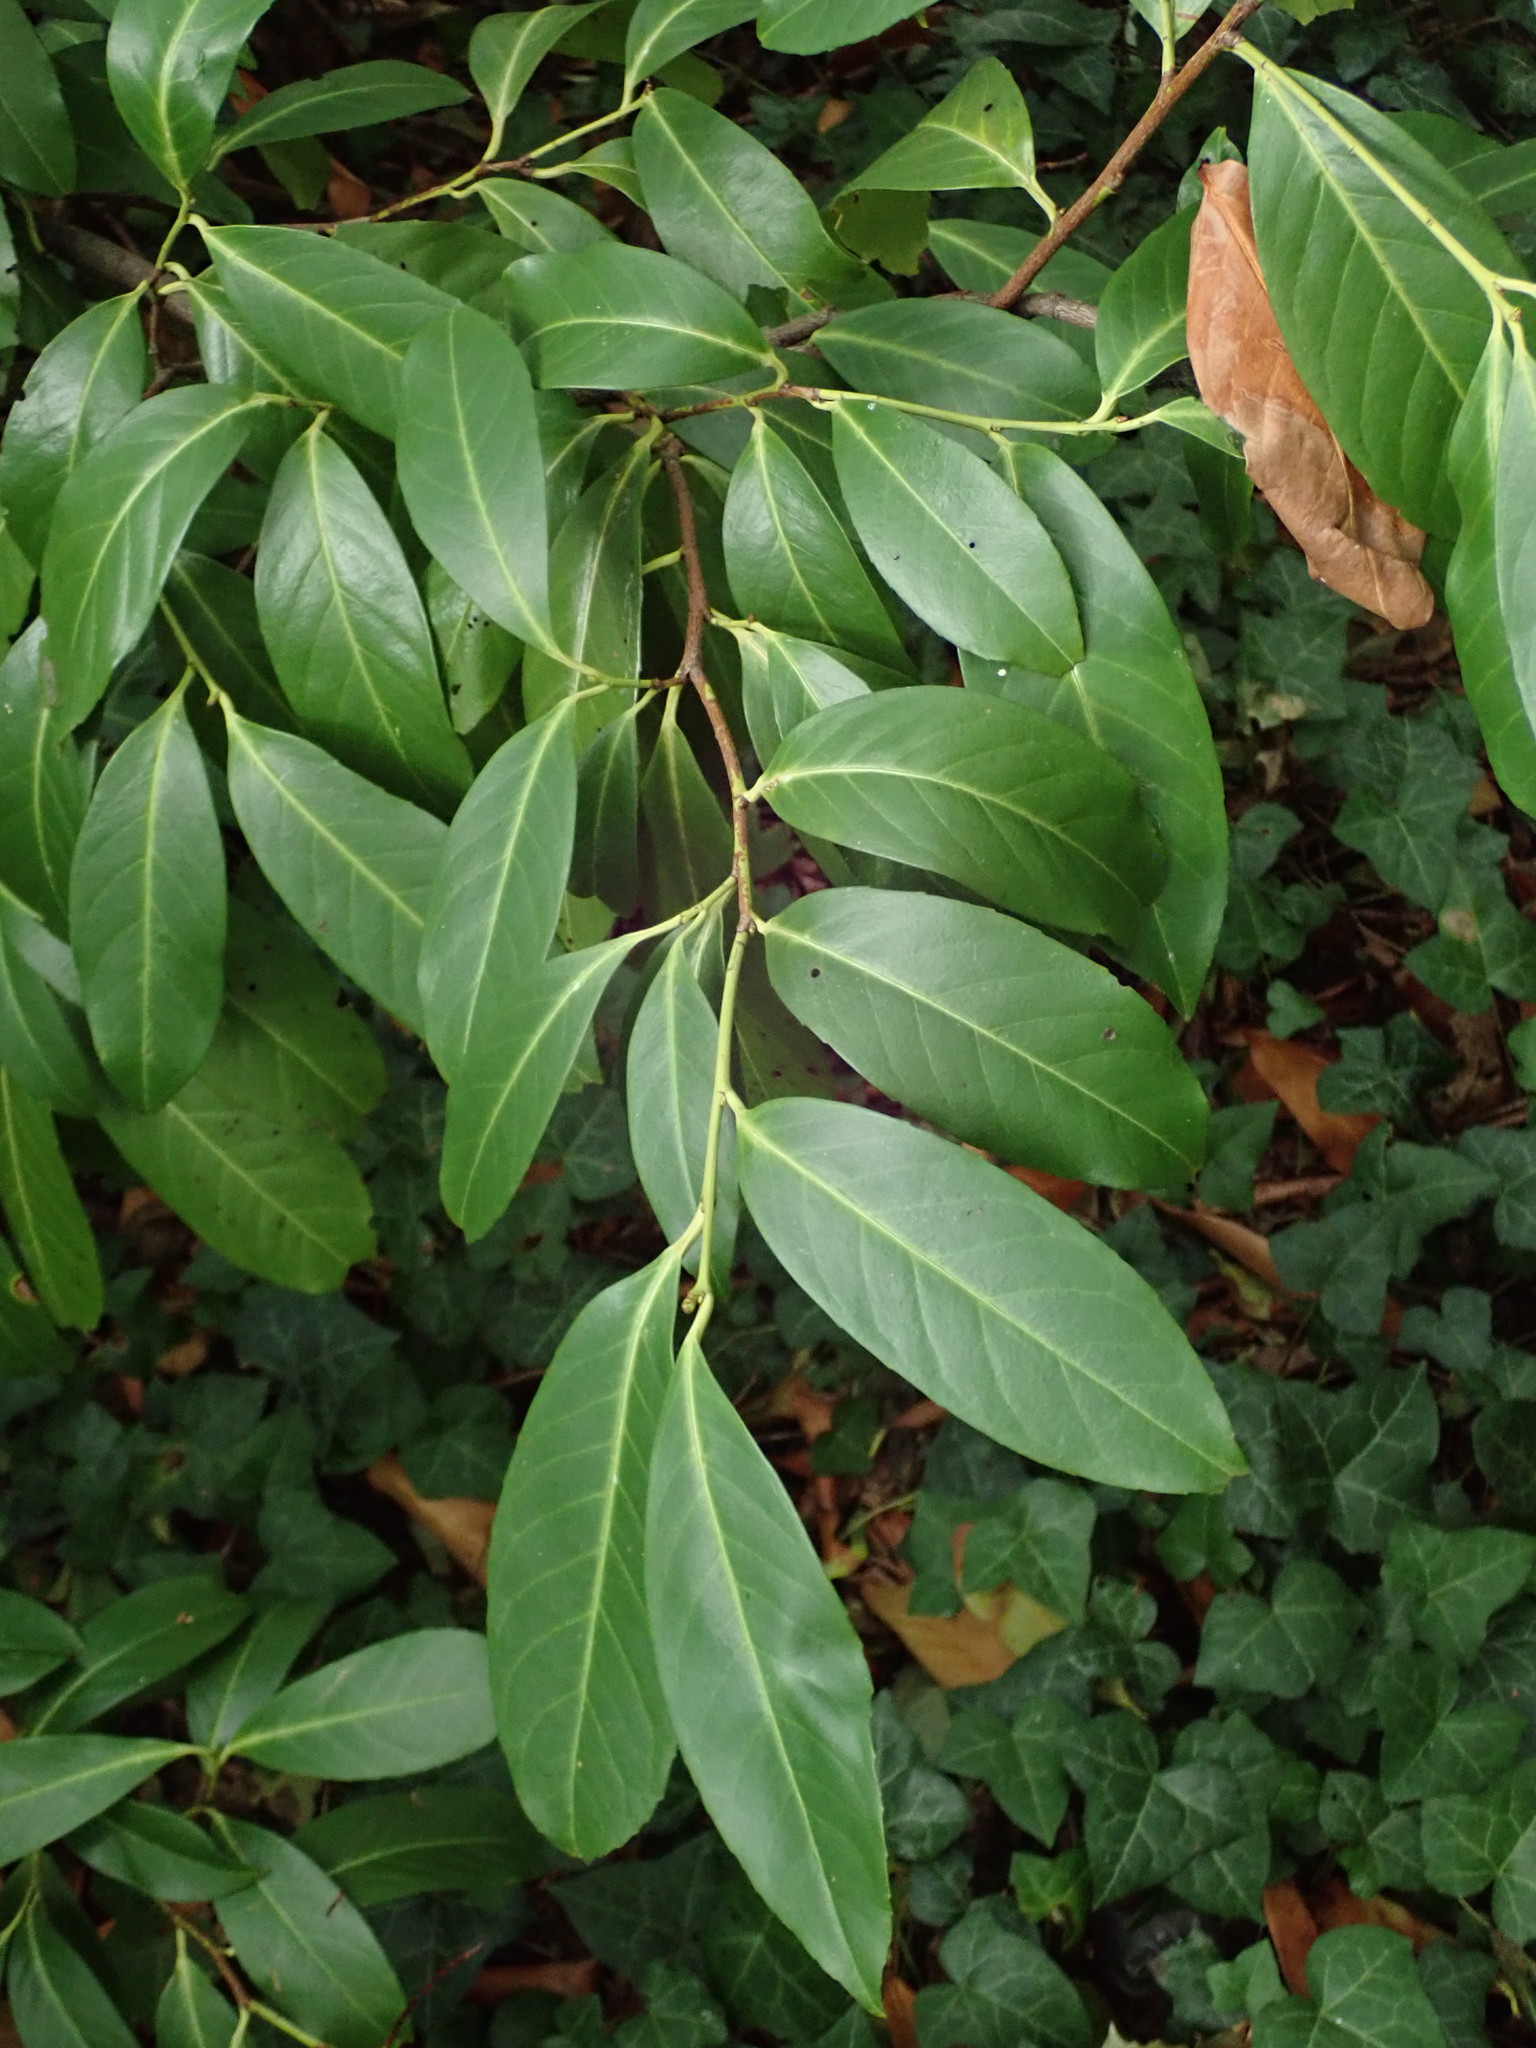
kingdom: Plantae
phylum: Tracheophyta
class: Magnoliopsida
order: Rosales
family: Rosaceae
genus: Prunus
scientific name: Prunus laurocerasus
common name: Cherry laurel
